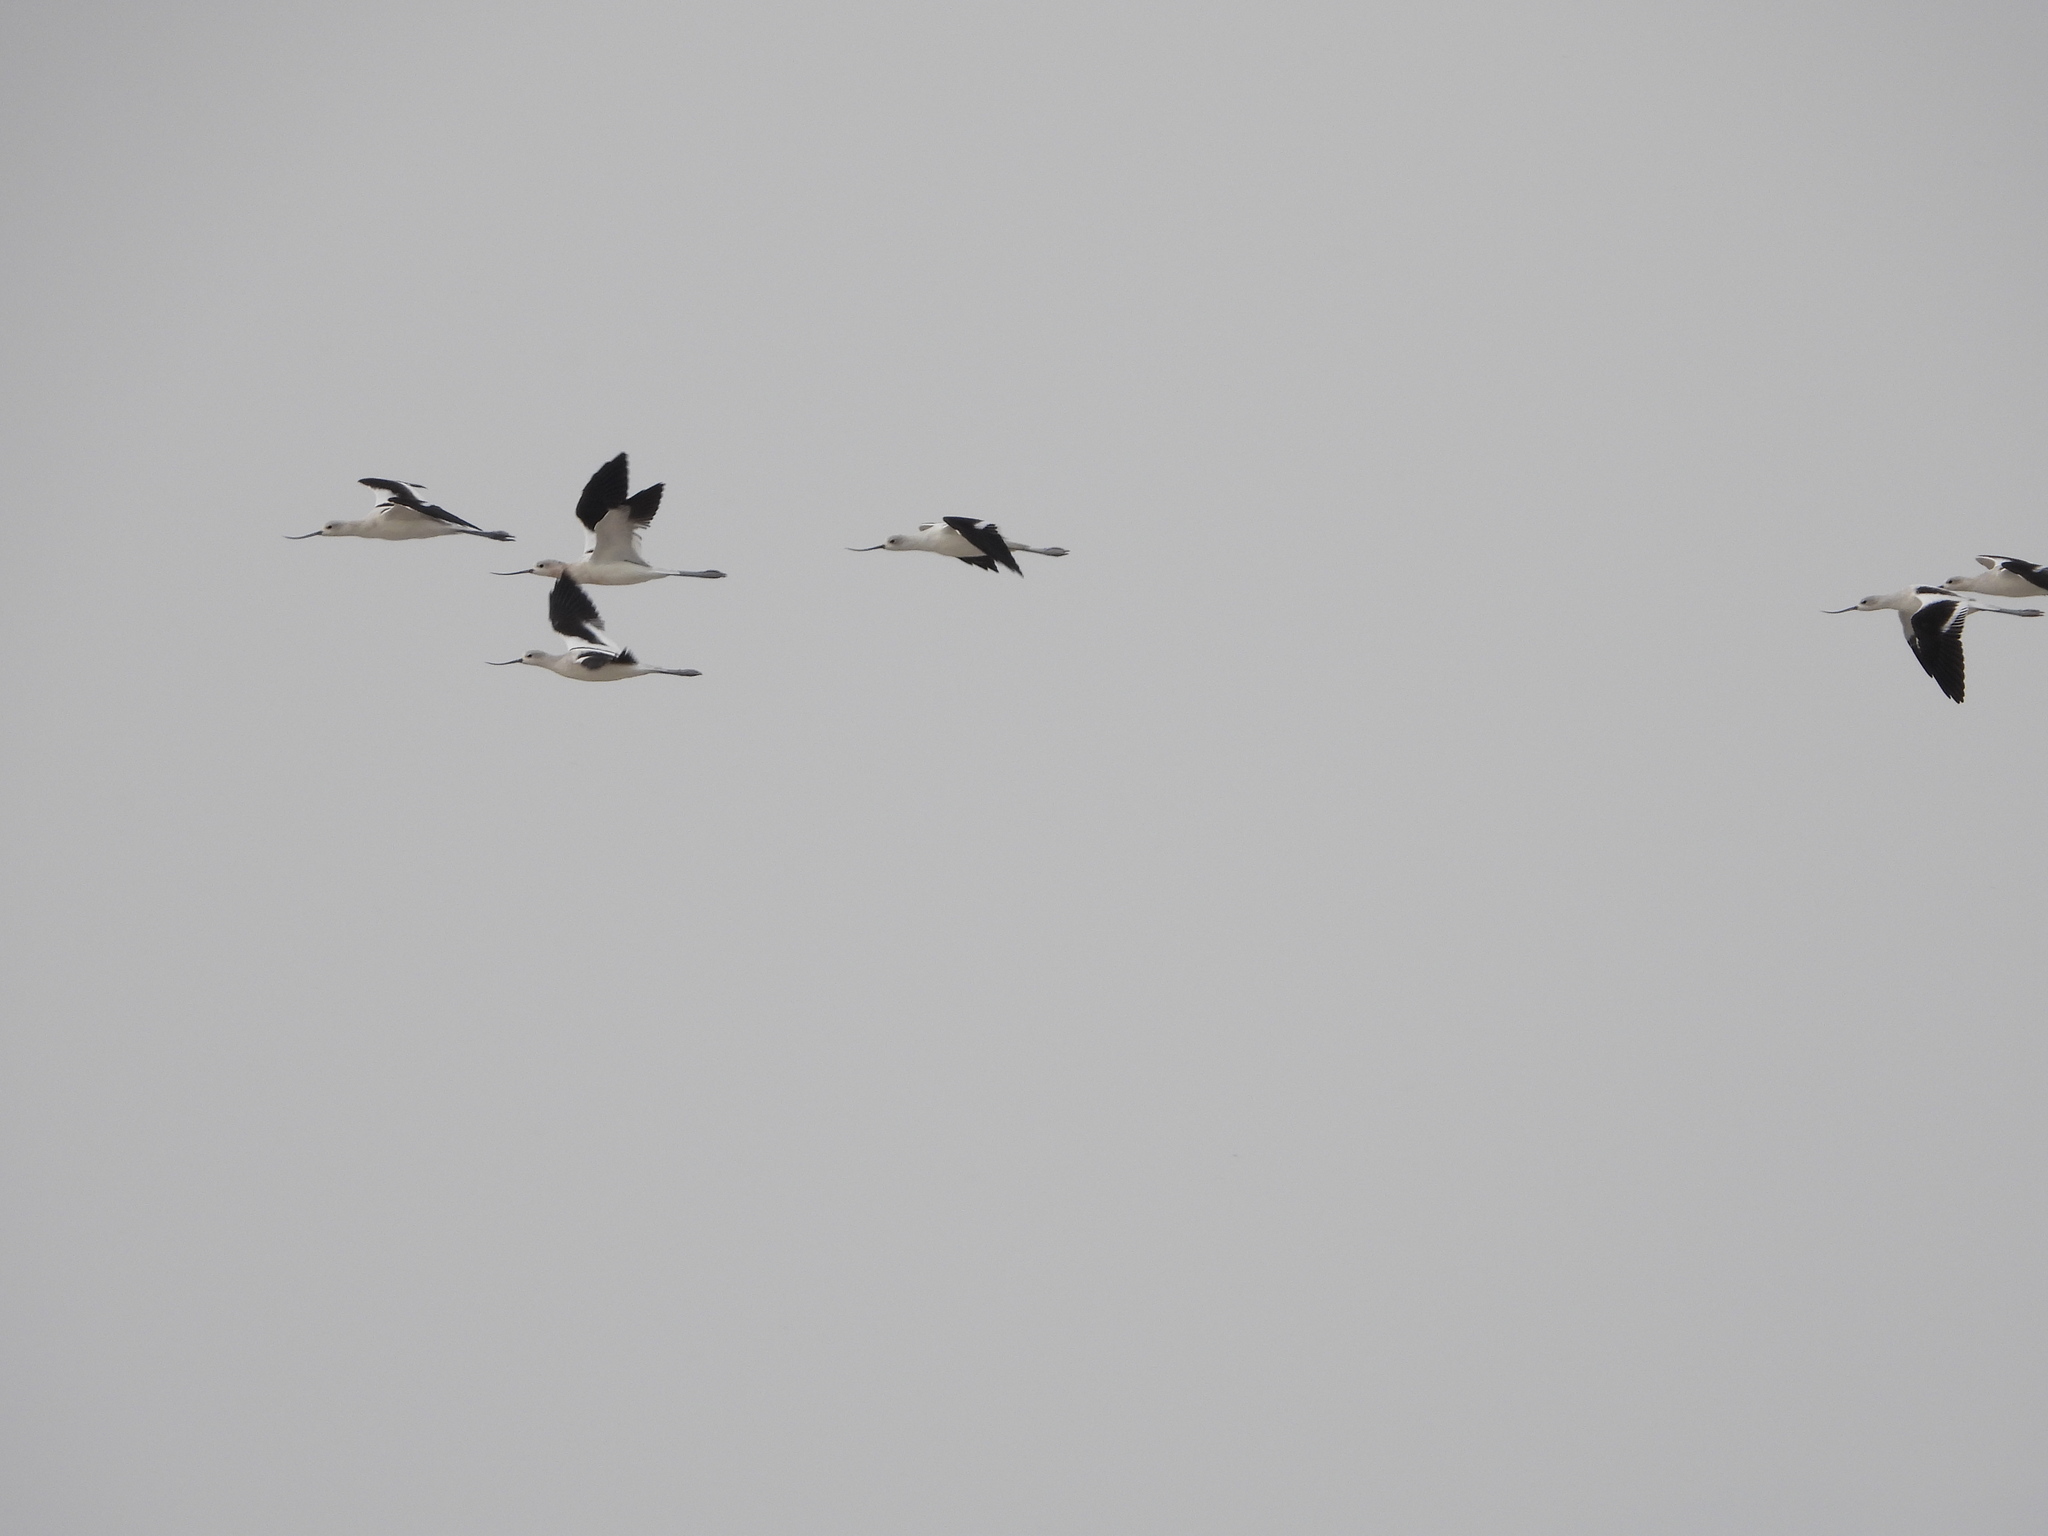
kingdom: Animalia
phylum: Chordata
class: Aves
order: Charadriiformes
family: Recurvirostridae
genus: Recurvirostra
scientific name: Recurvirostra americana
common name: American avocet
